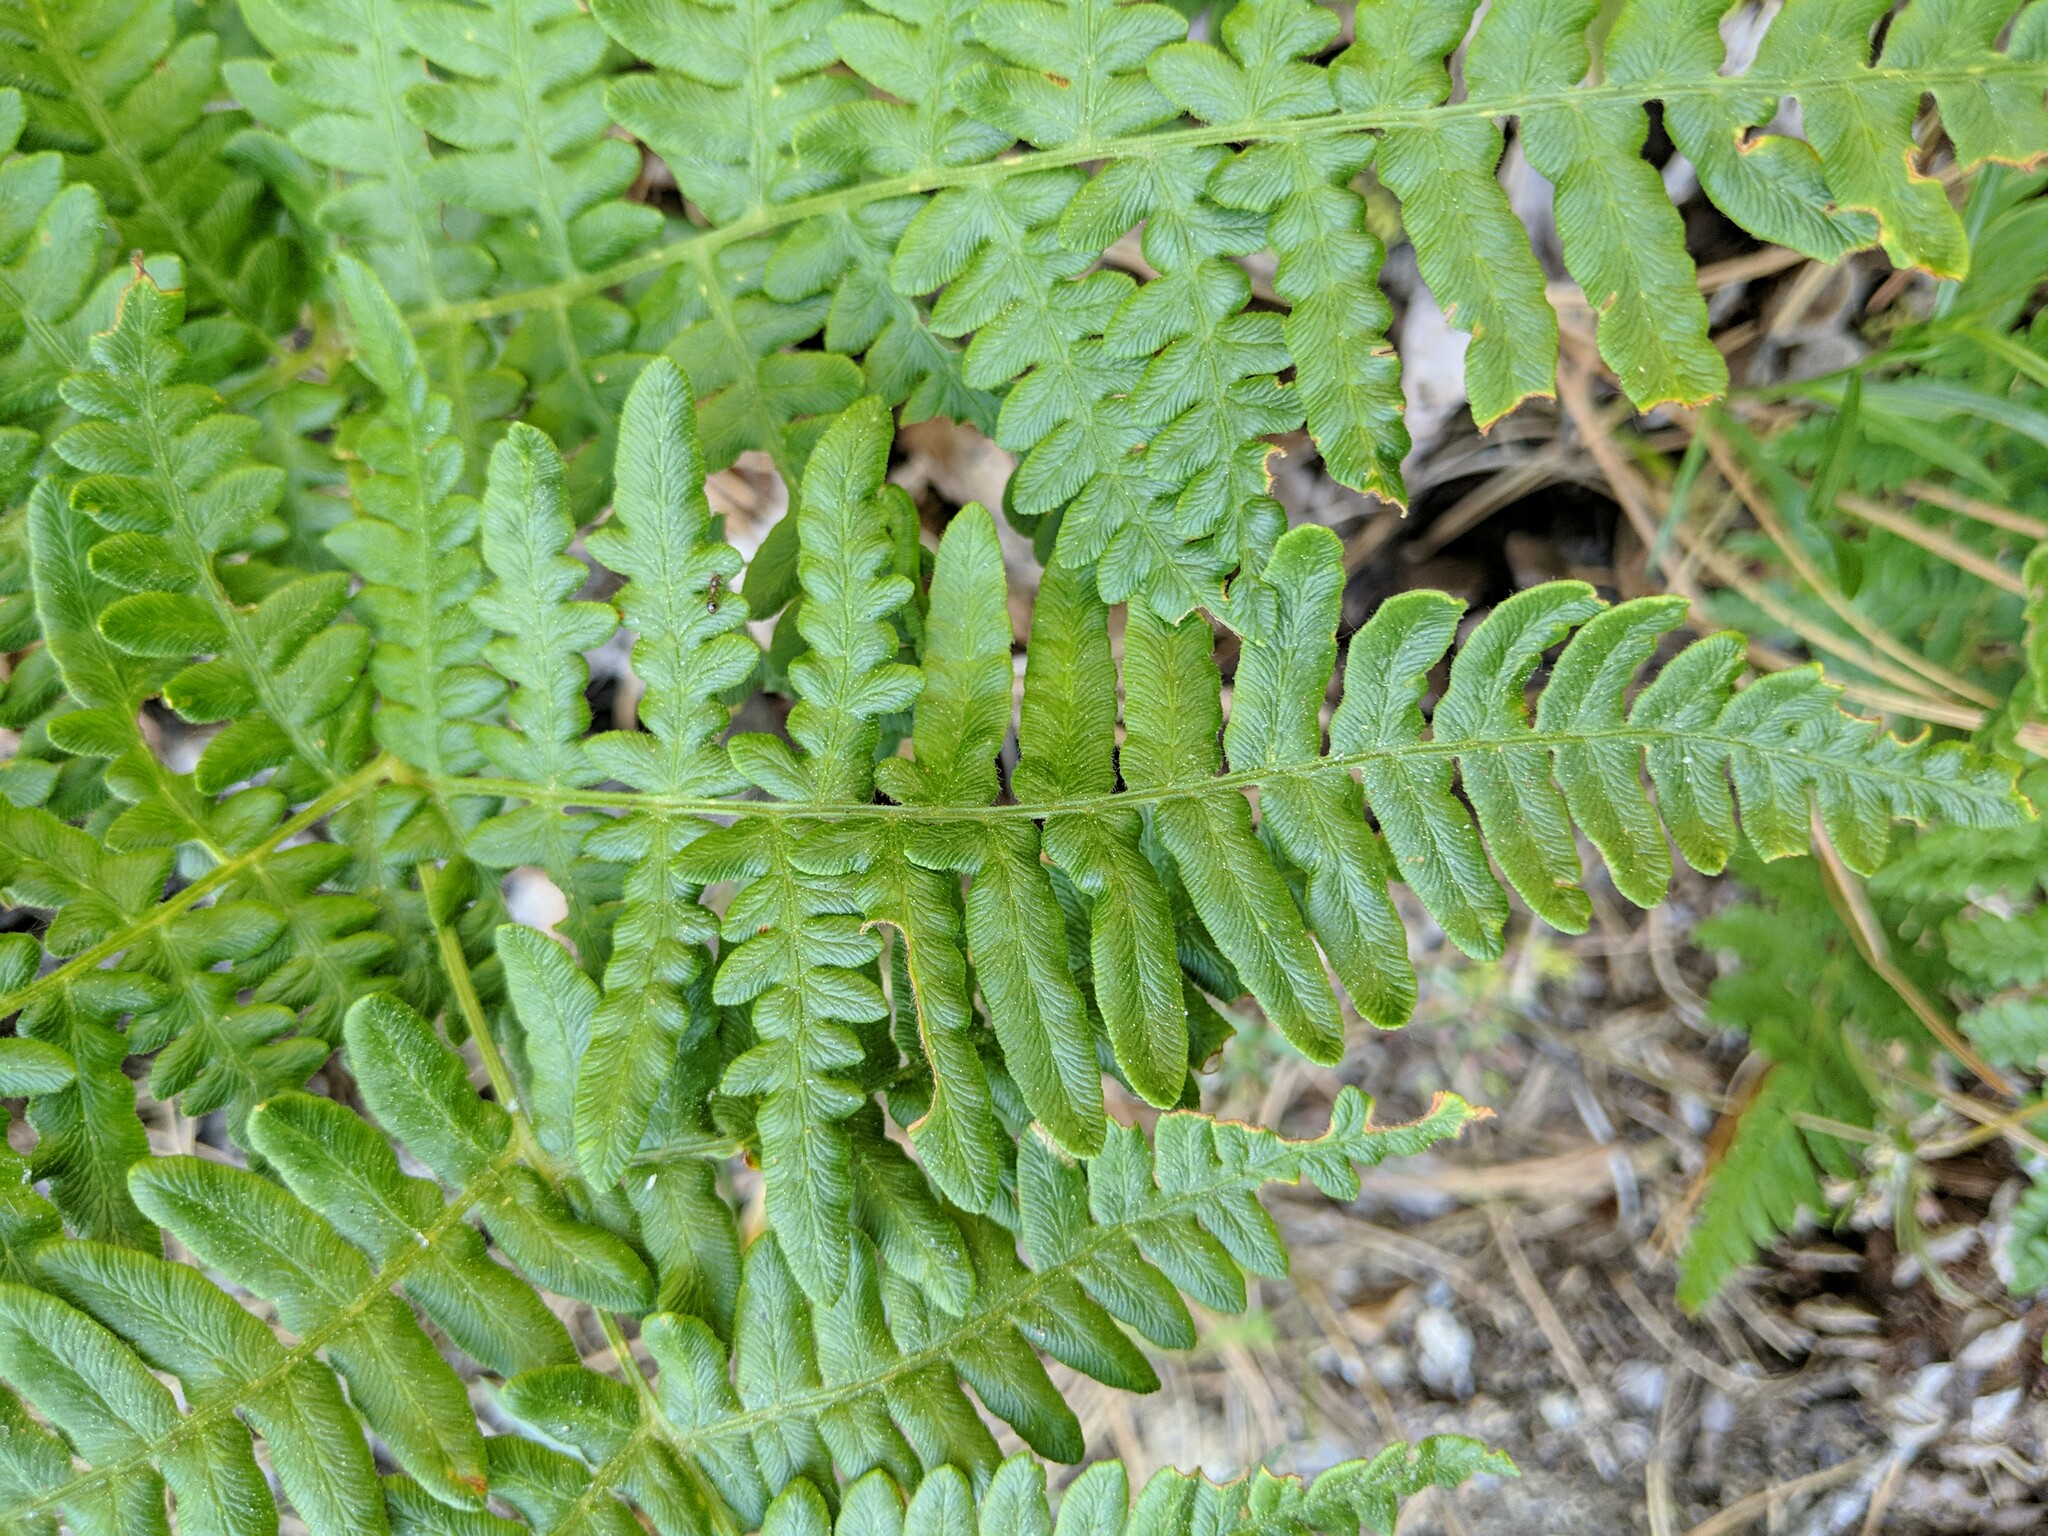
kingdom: Plantae
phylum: Tracheophyta
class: Polypodiopsida
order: Polypodiales
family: Dennstaedtiaceae
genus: Pteridium
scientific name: Pteridium aquilinum
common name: Bracken
